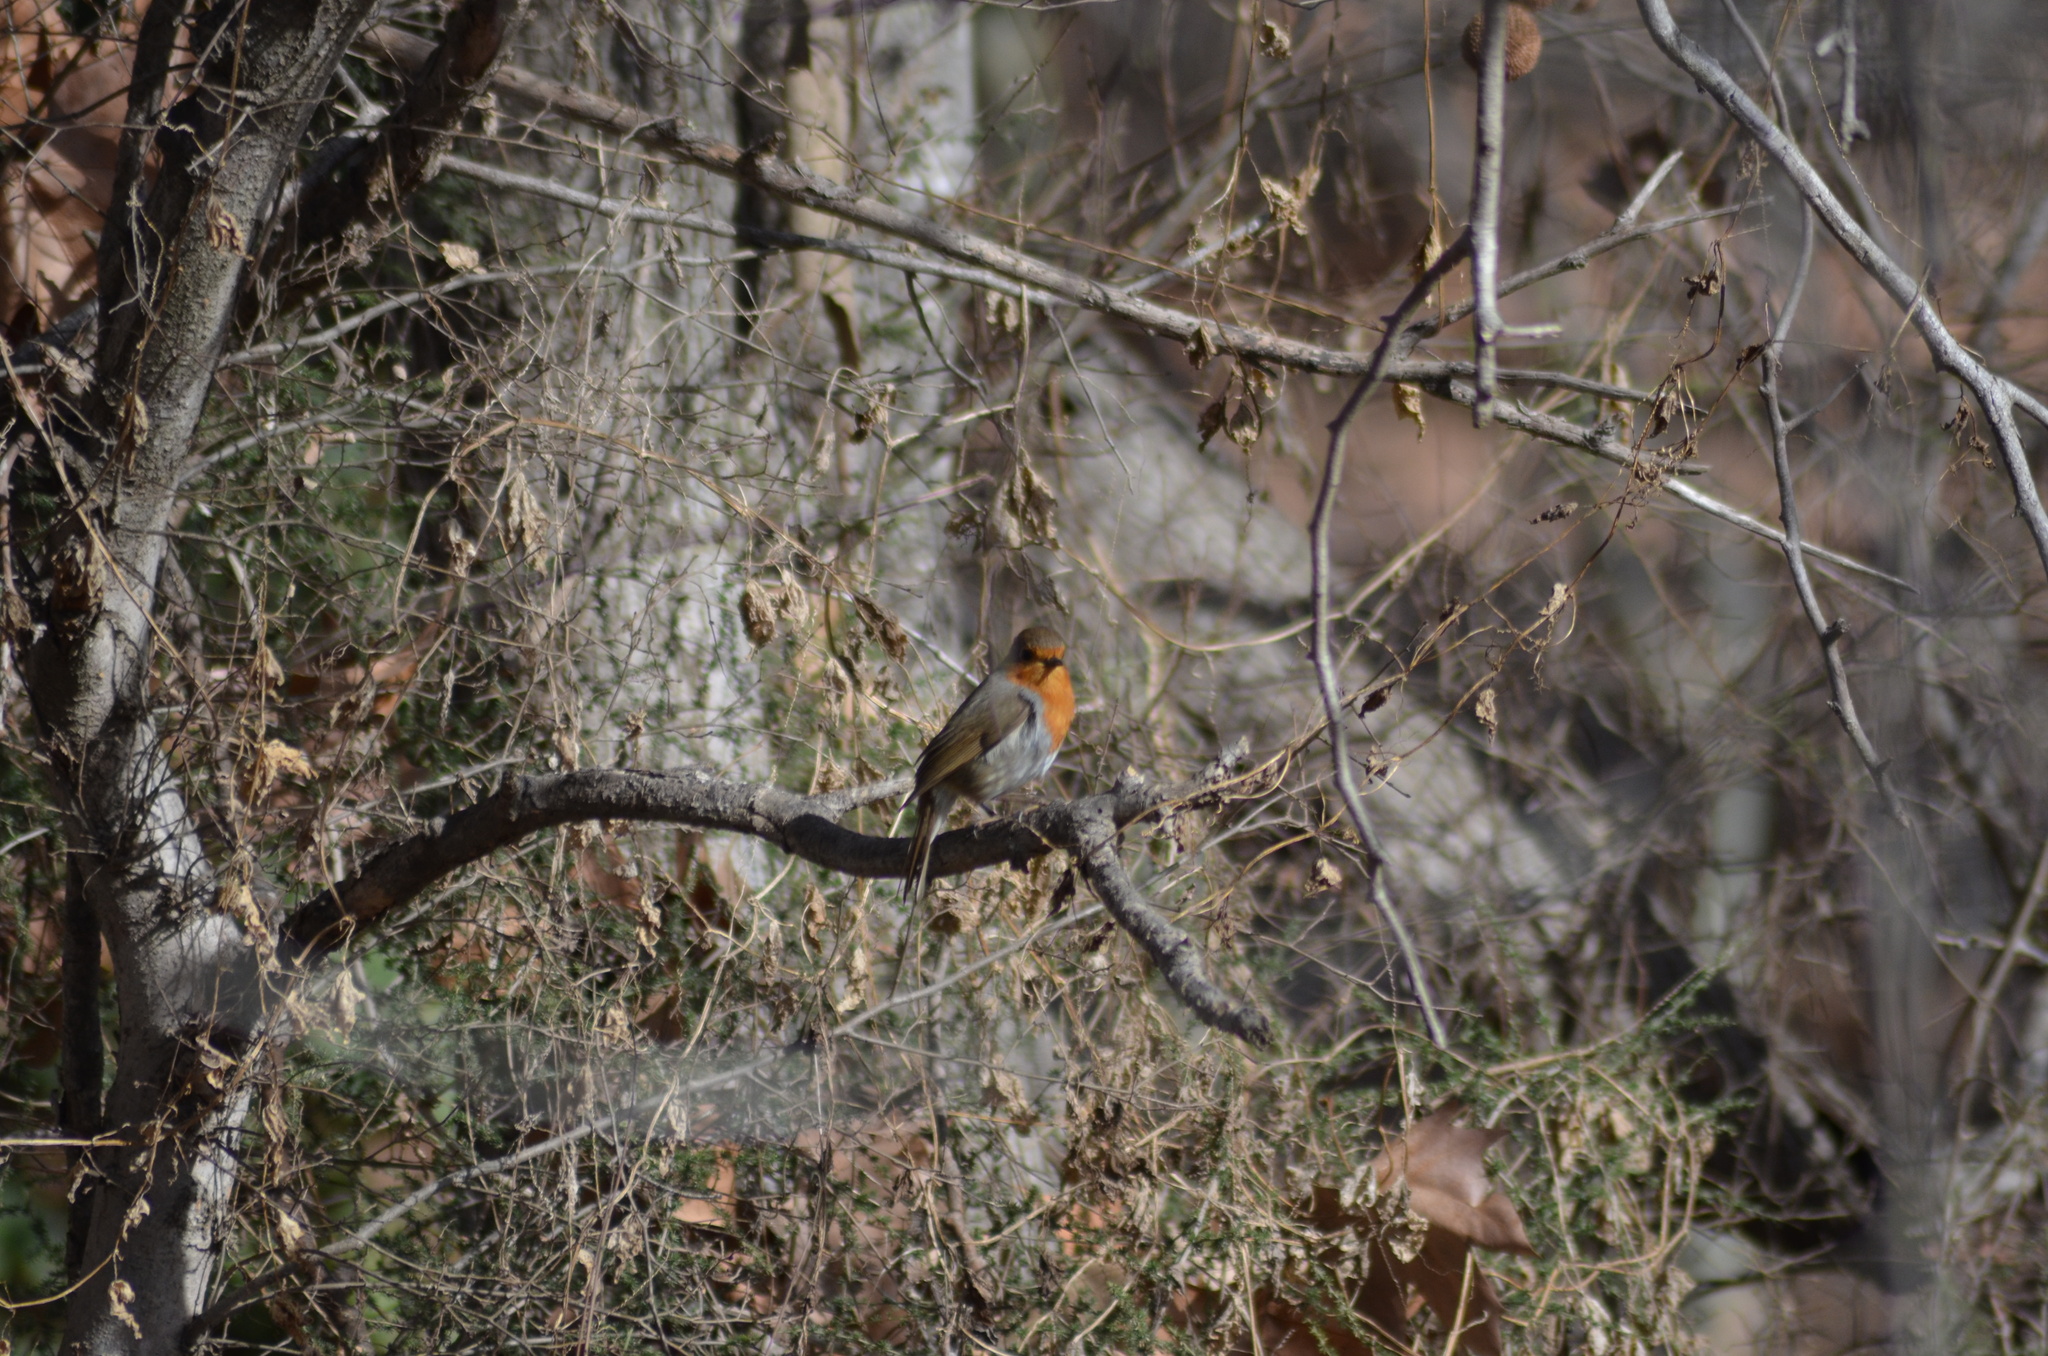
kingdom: Animalia
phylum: Chordata
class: Aves
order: Passeriformes
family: Muscicapidae
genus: Erithacus
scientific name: Erithacus rubecula
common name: European robin
